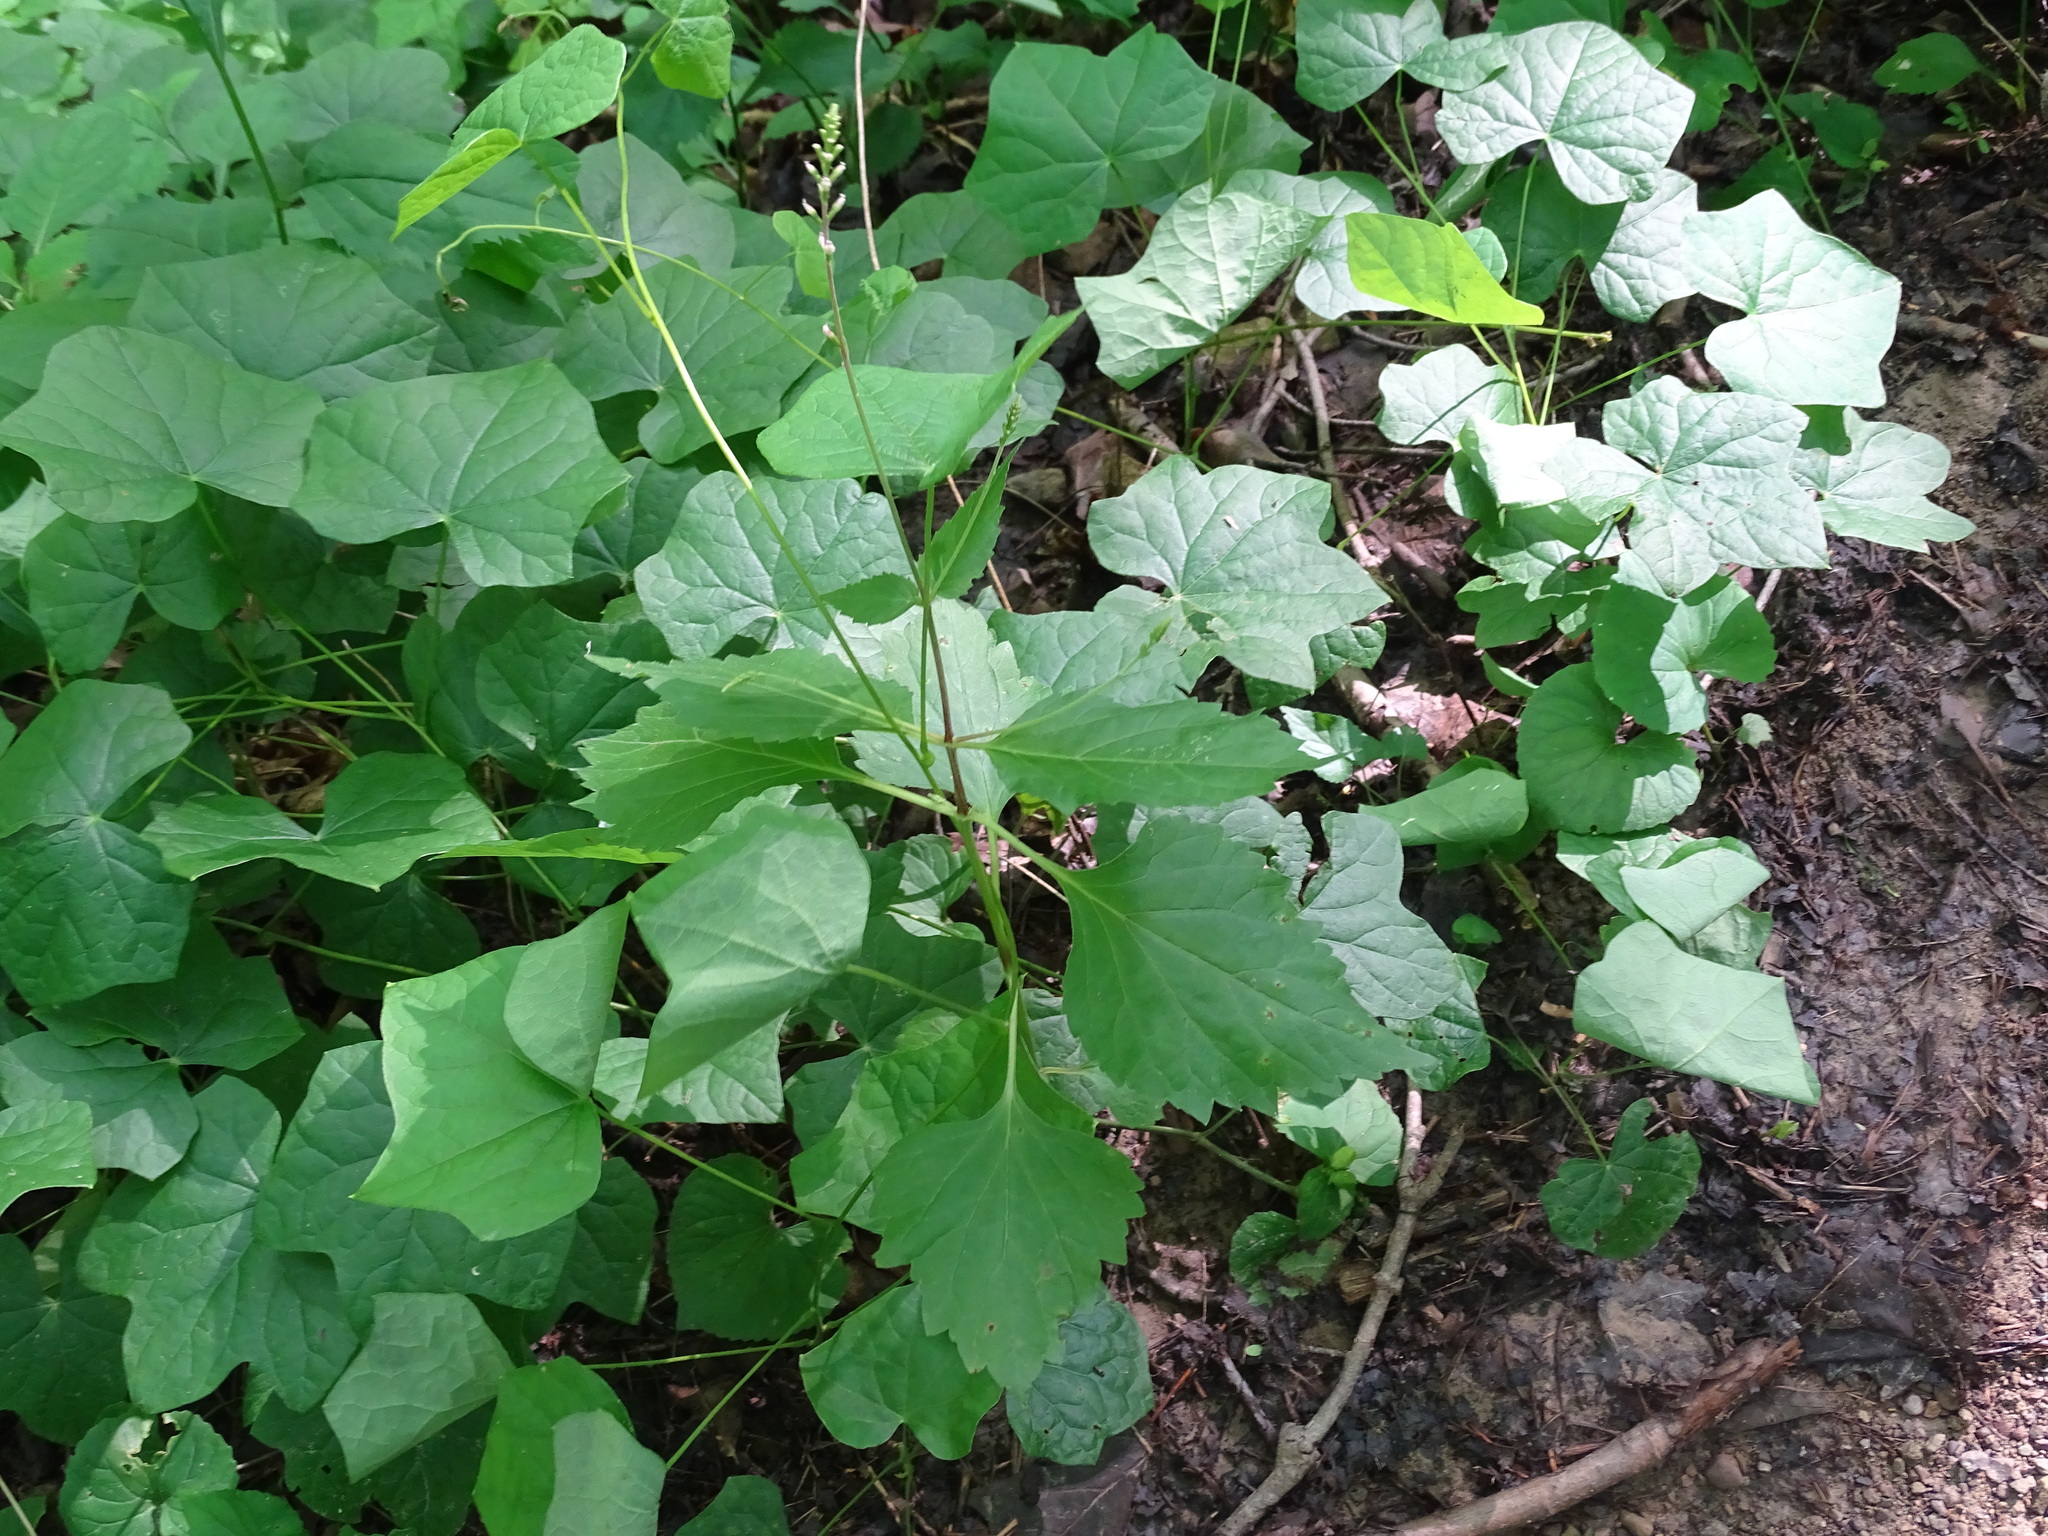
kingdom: Plantae
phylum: Tracheophyta
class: Magnoliopsida
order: Lamiales
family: Phrymaceae
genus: Phryma
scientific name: Phryma leptostachya
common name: American lopseed
